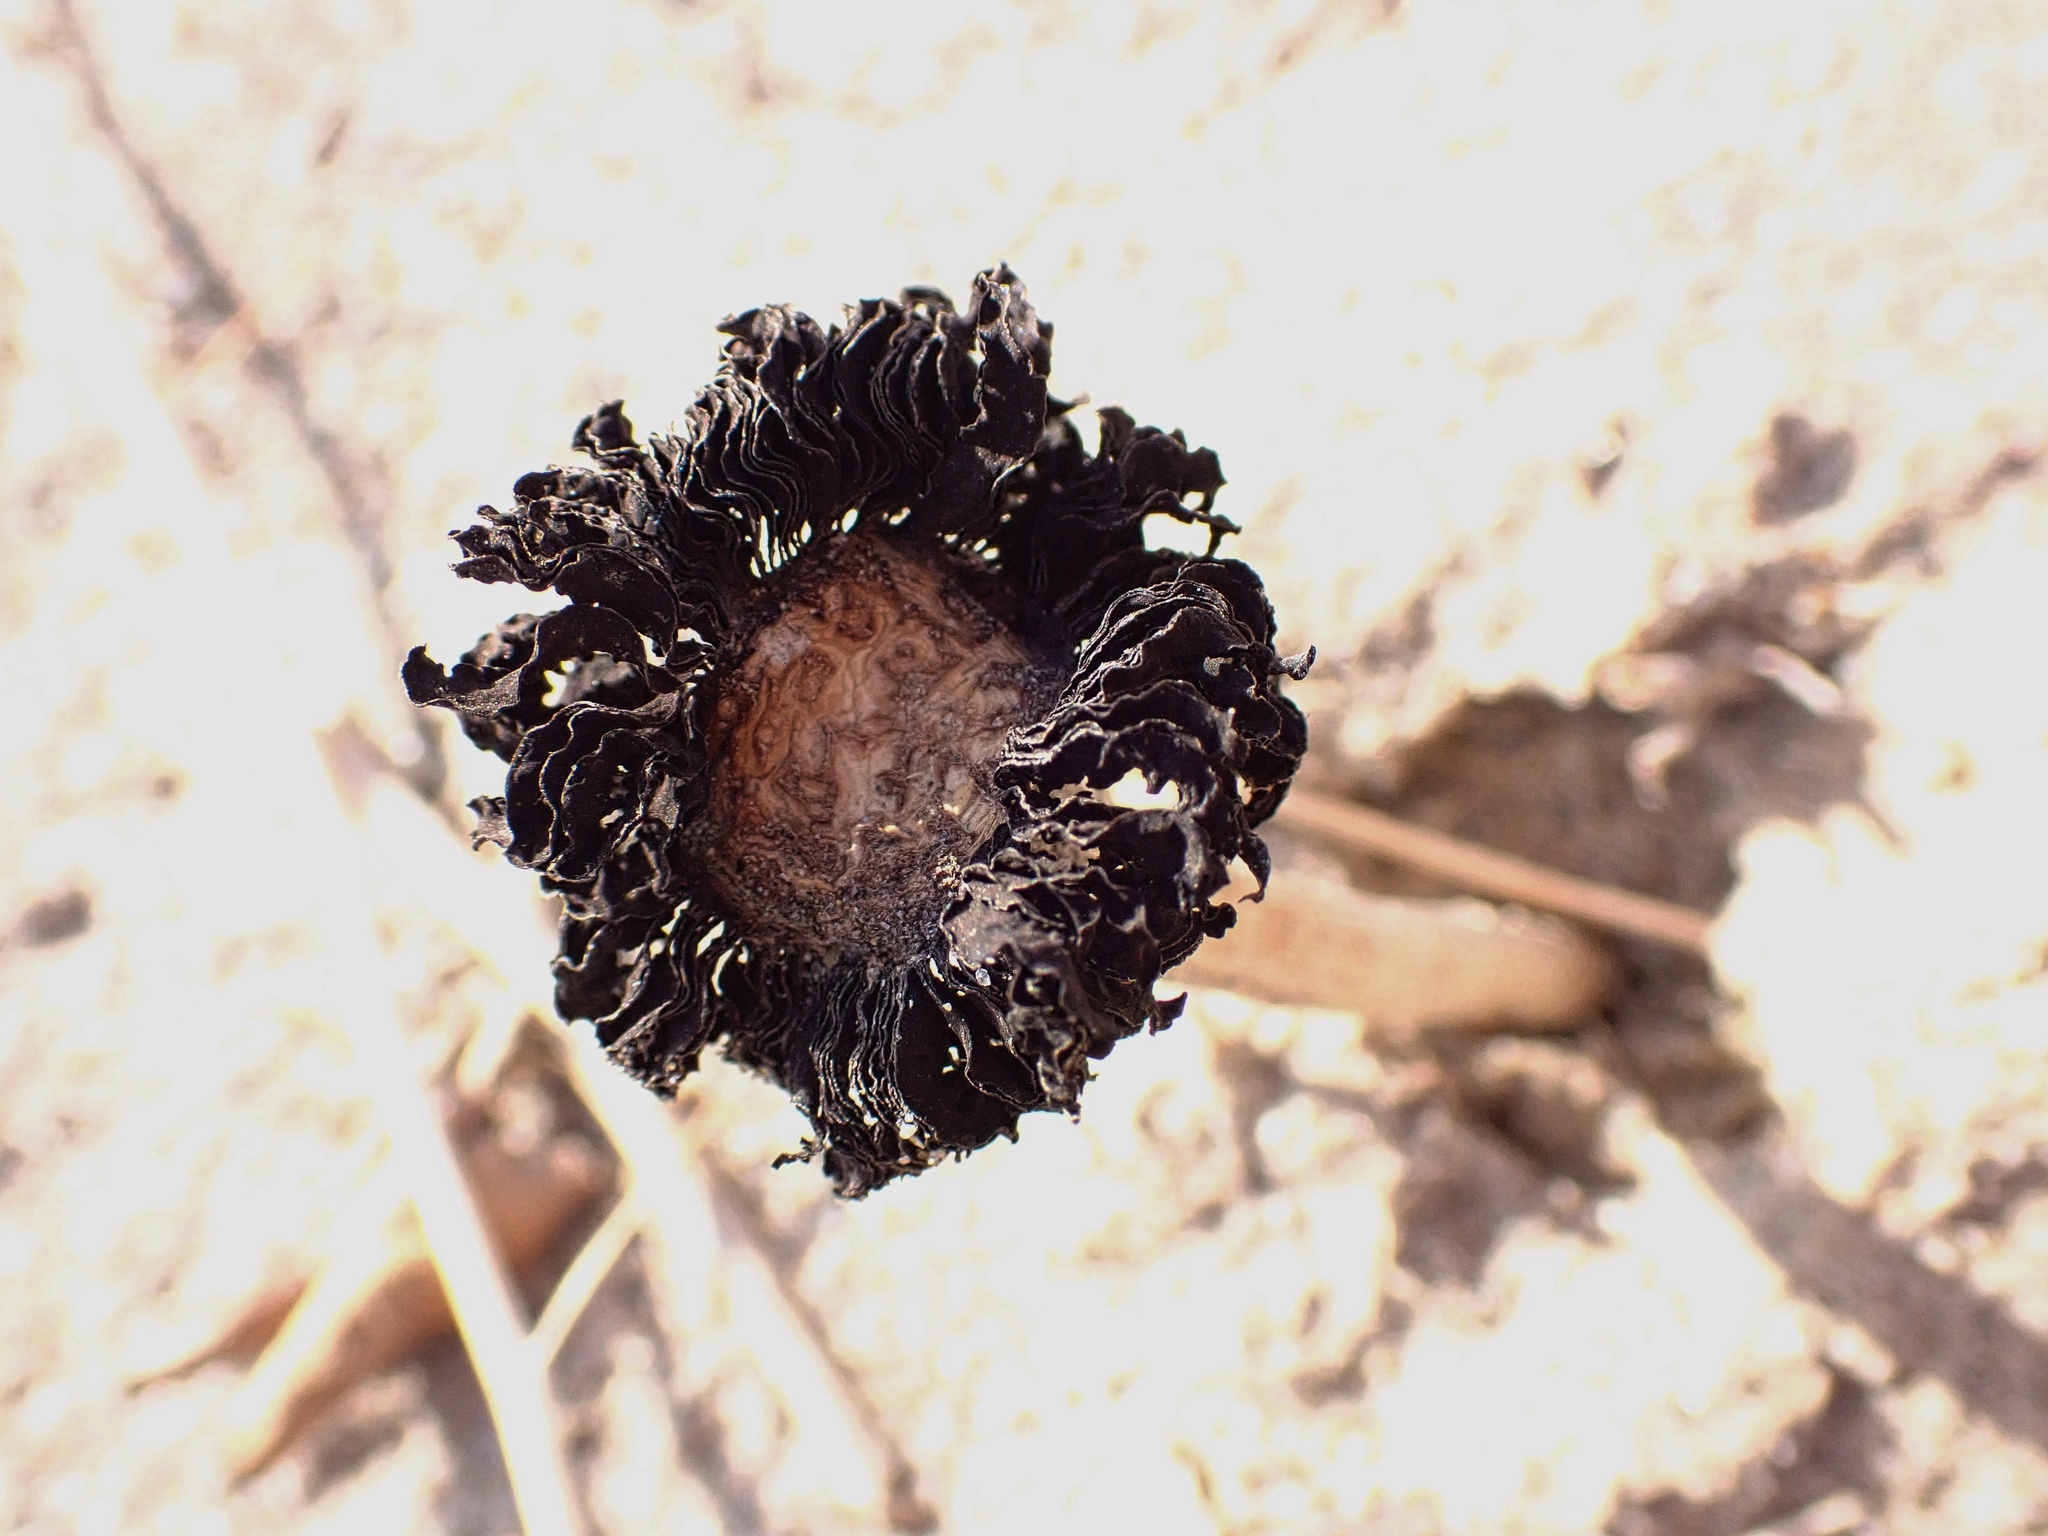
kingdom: Fungi
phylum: Basidiomycota
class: Agaricomycetes
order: Agaricales
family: Agaricaceae
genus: Montagnea
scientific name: Montagnea arenaria
